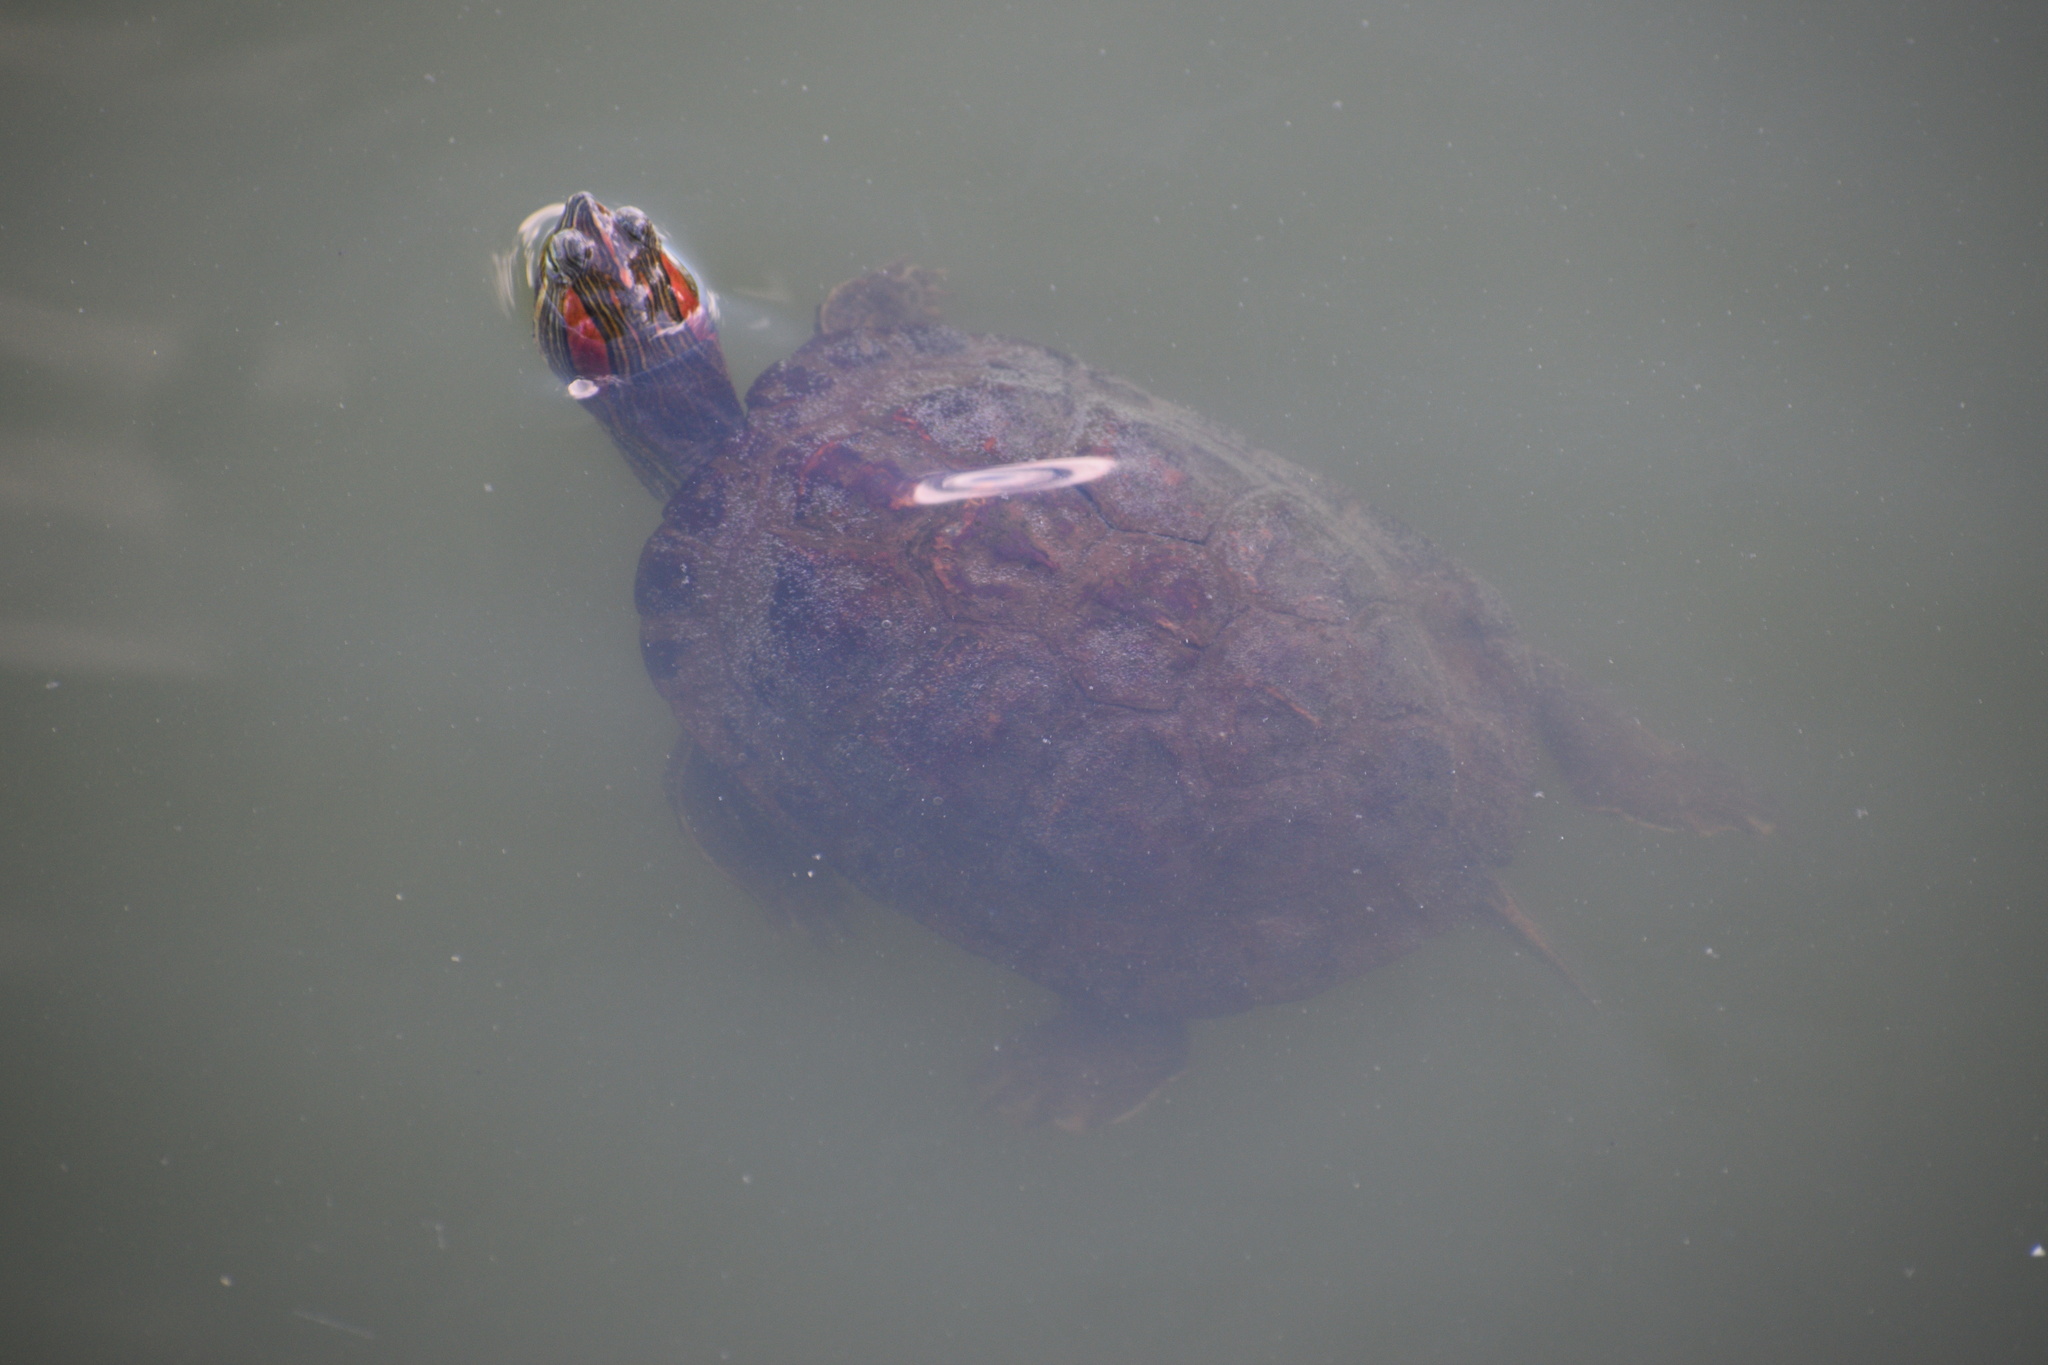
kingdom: Animalia
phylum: Chordata
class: Testudines
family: Emydidae
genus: Trachemys
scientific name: Trachemys scripta
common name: Slider
